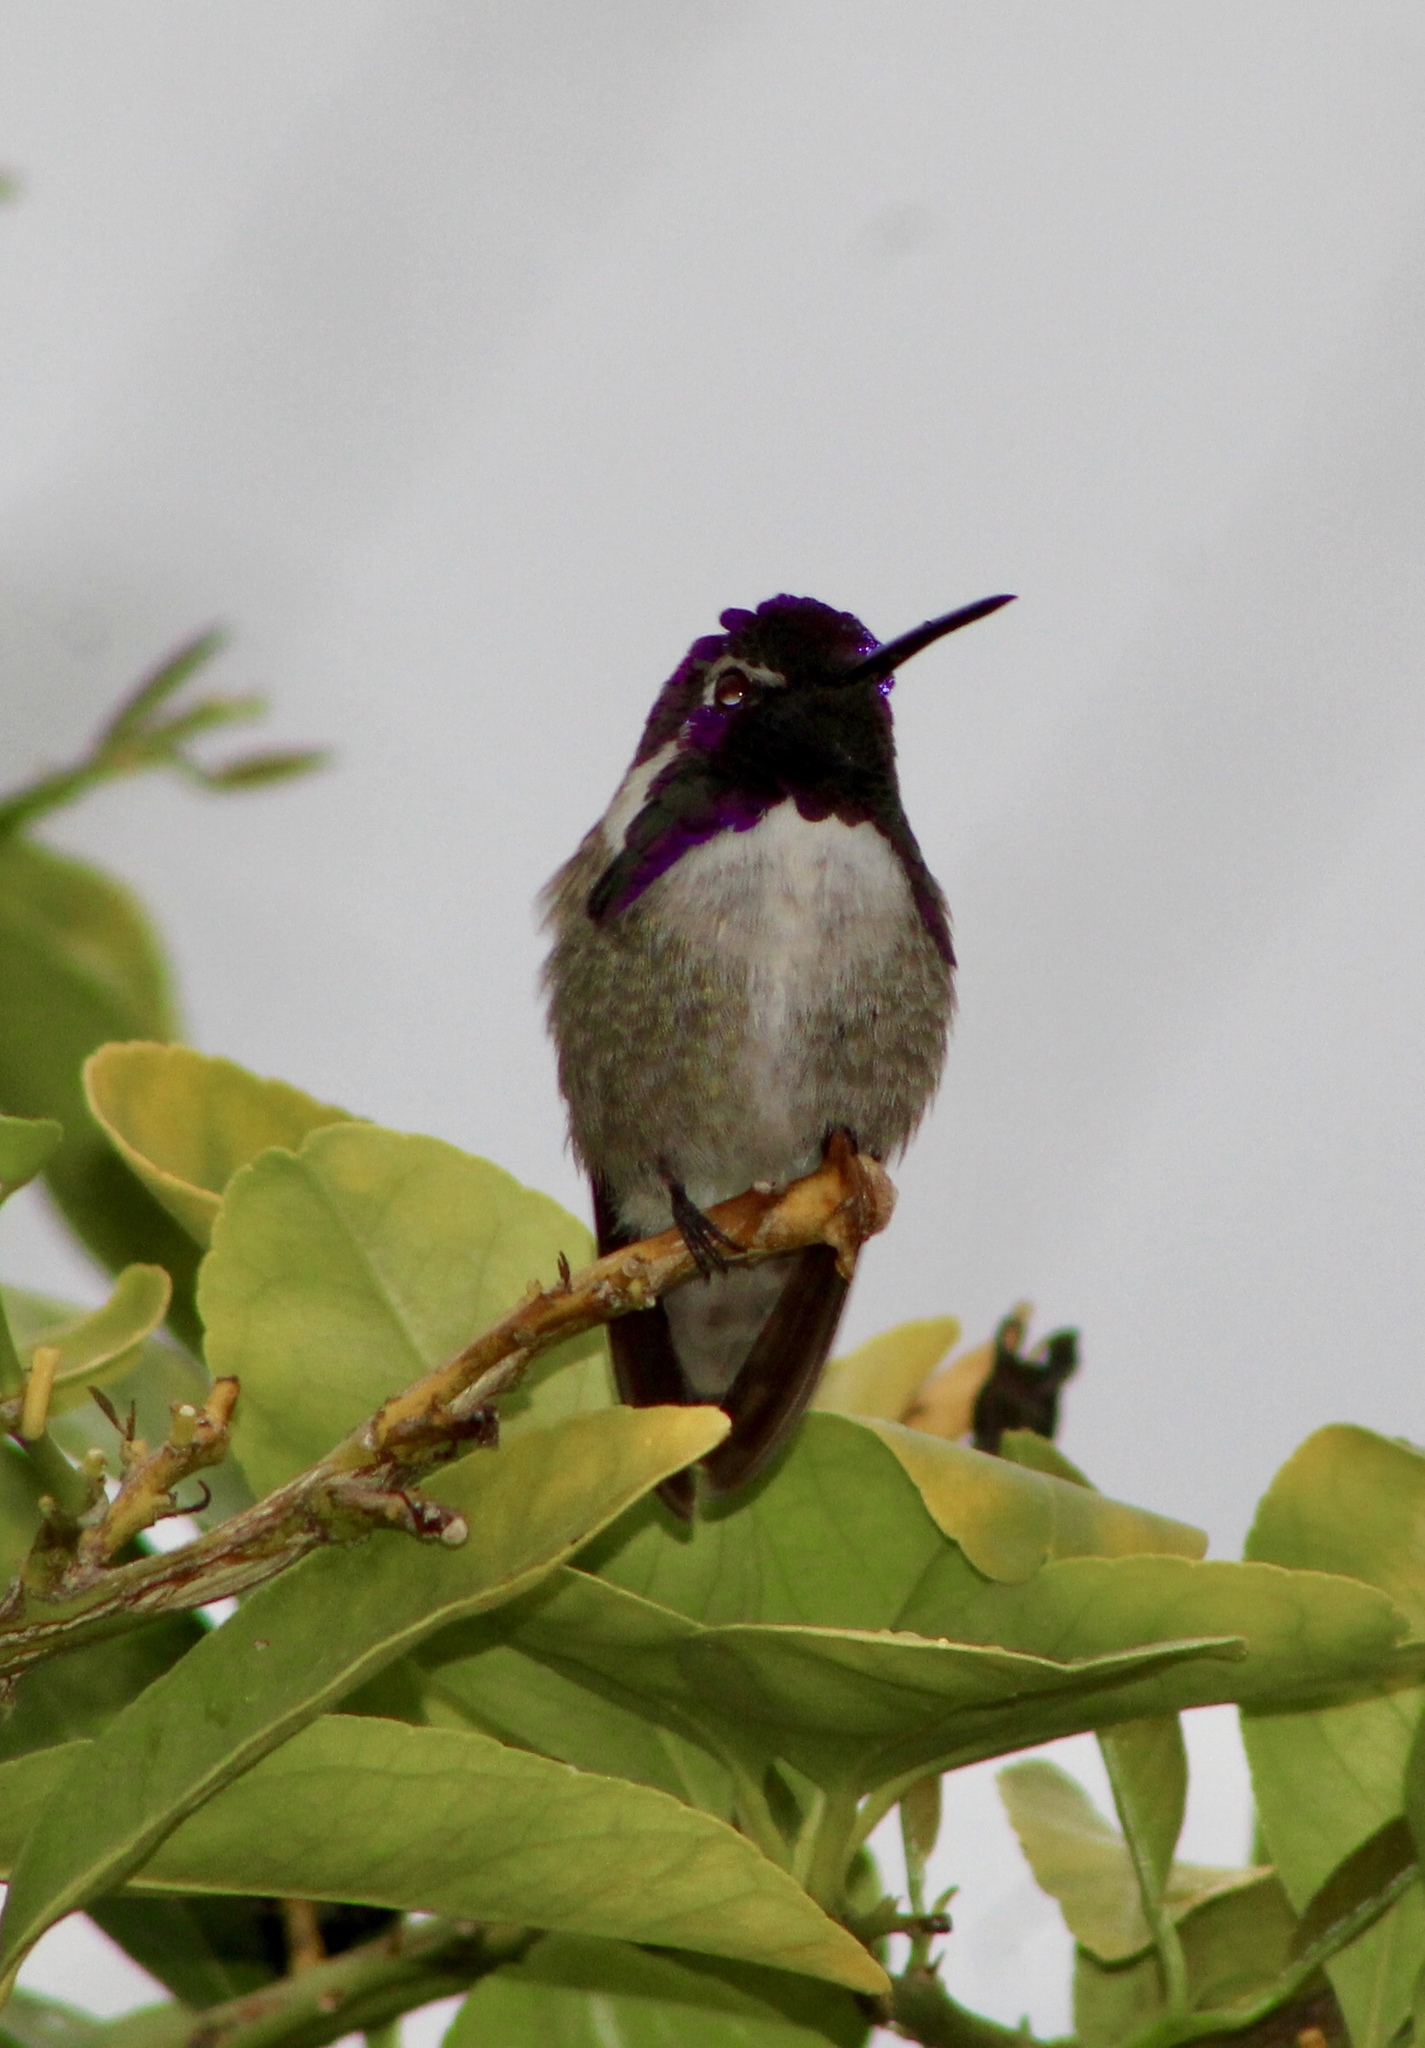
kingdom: Animalia
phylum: Chordata
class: Aves
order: Apodiformes
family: Trochilidae
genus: Calypte
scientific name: Calypte costae
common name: Costa's hummingbird
